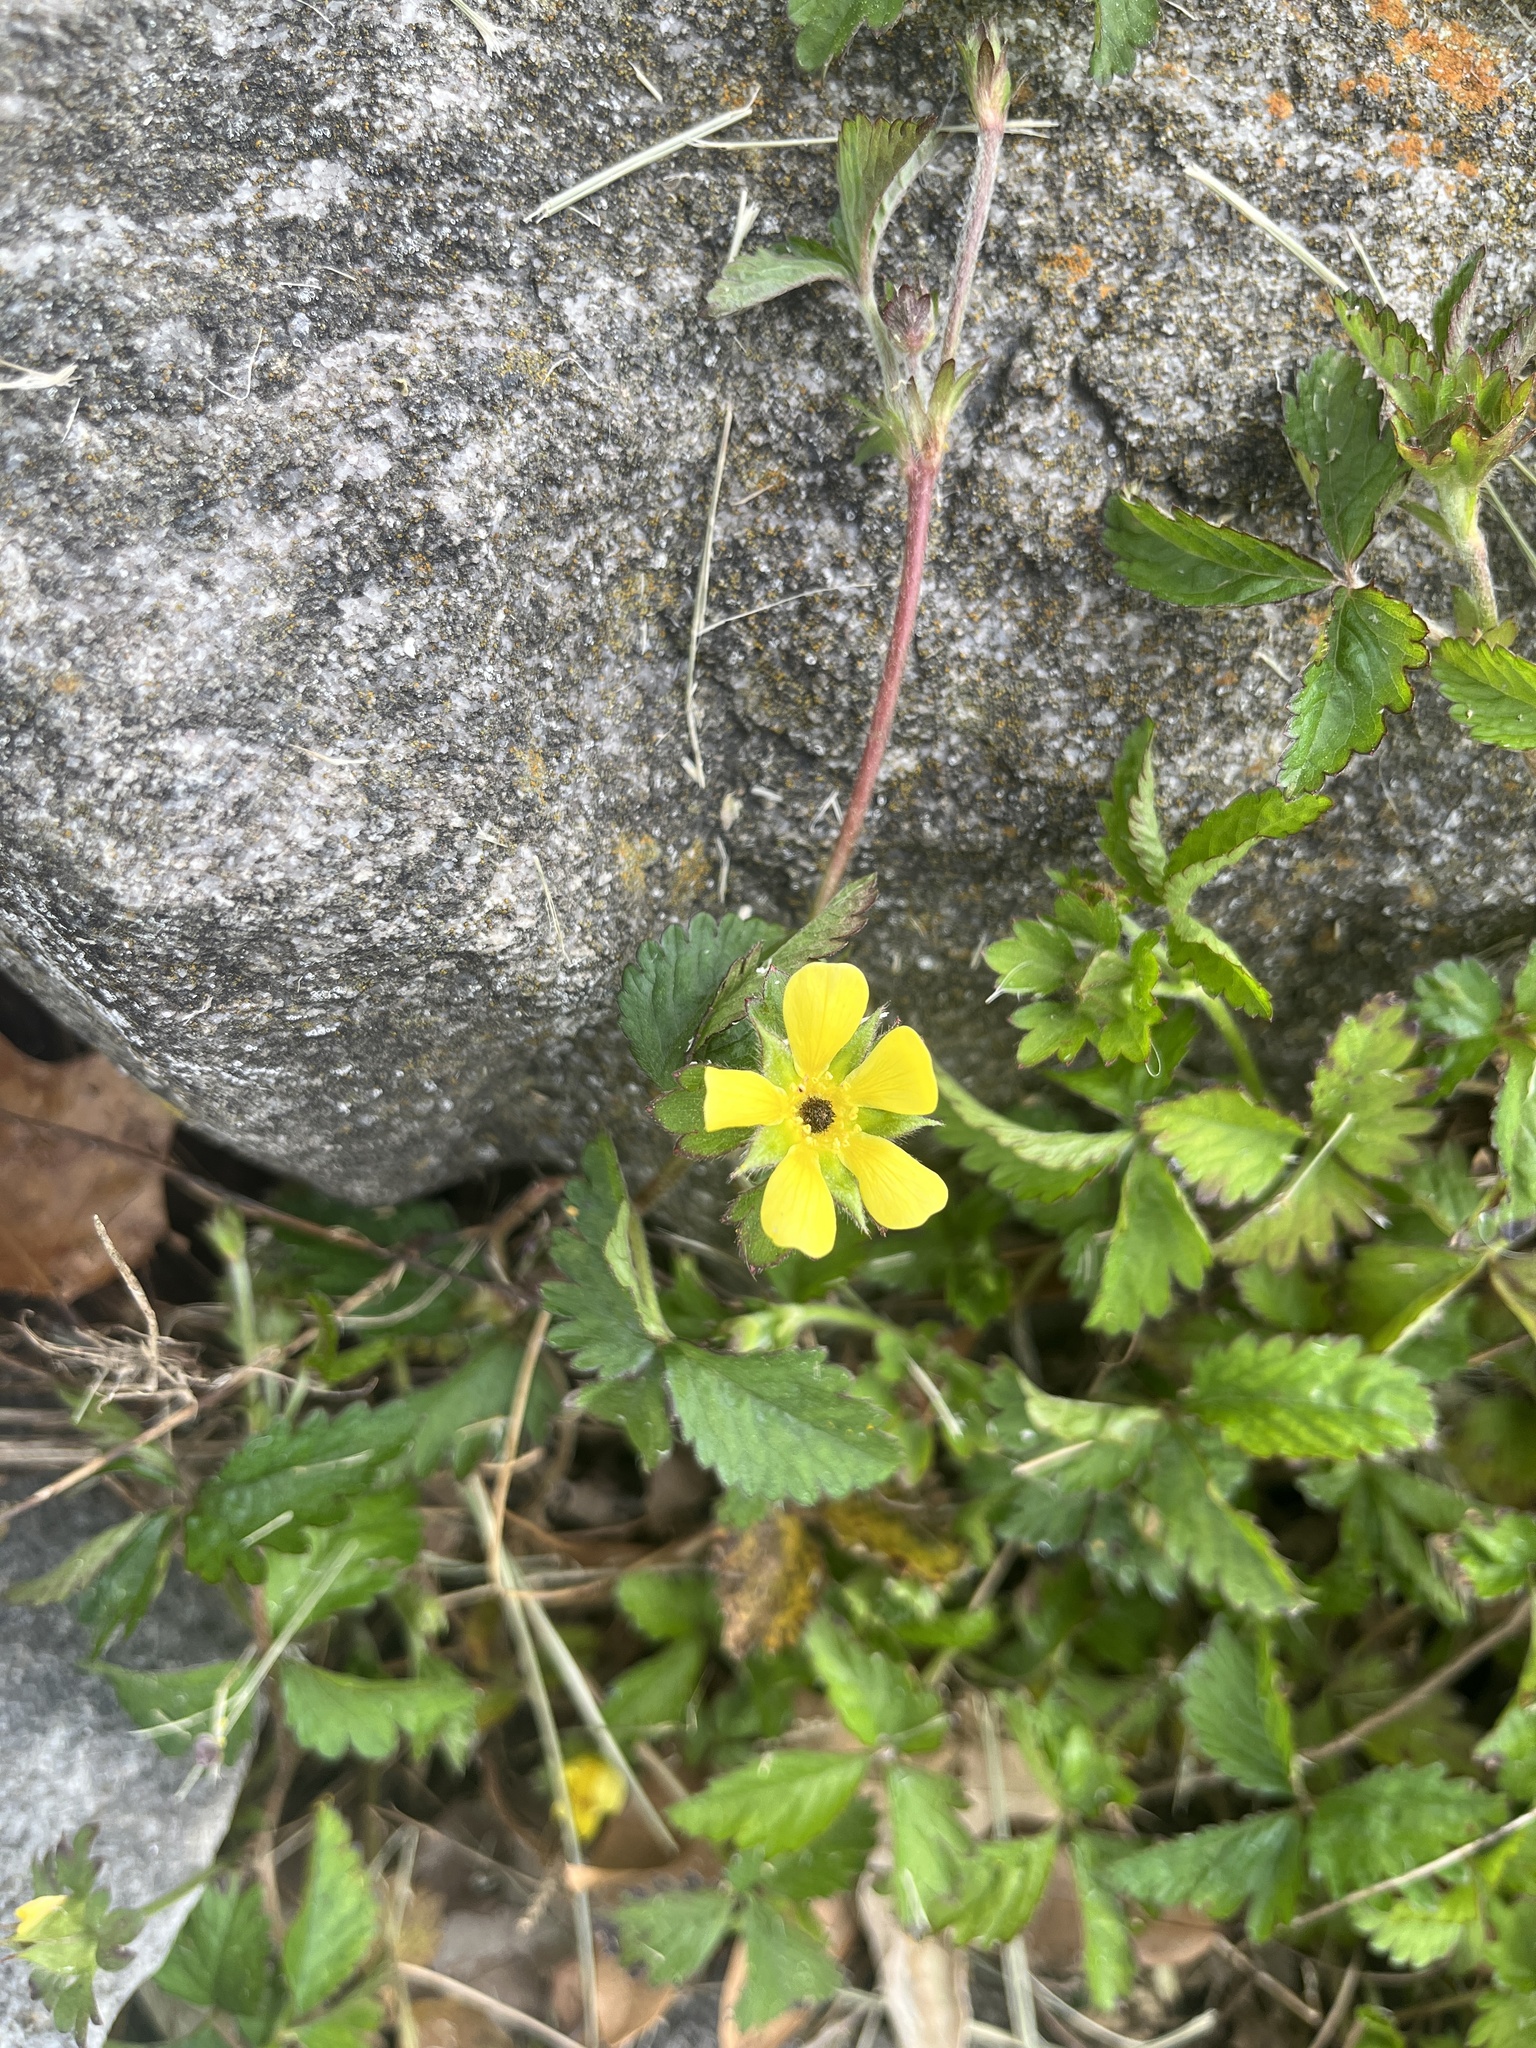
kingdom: Plantae
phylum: Tracheophyta
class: Magnoliopsida
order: Rosales
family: Rosaceae
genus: Potentilla
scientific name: Potentilla indica
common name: Yellow-flowered strawberry
